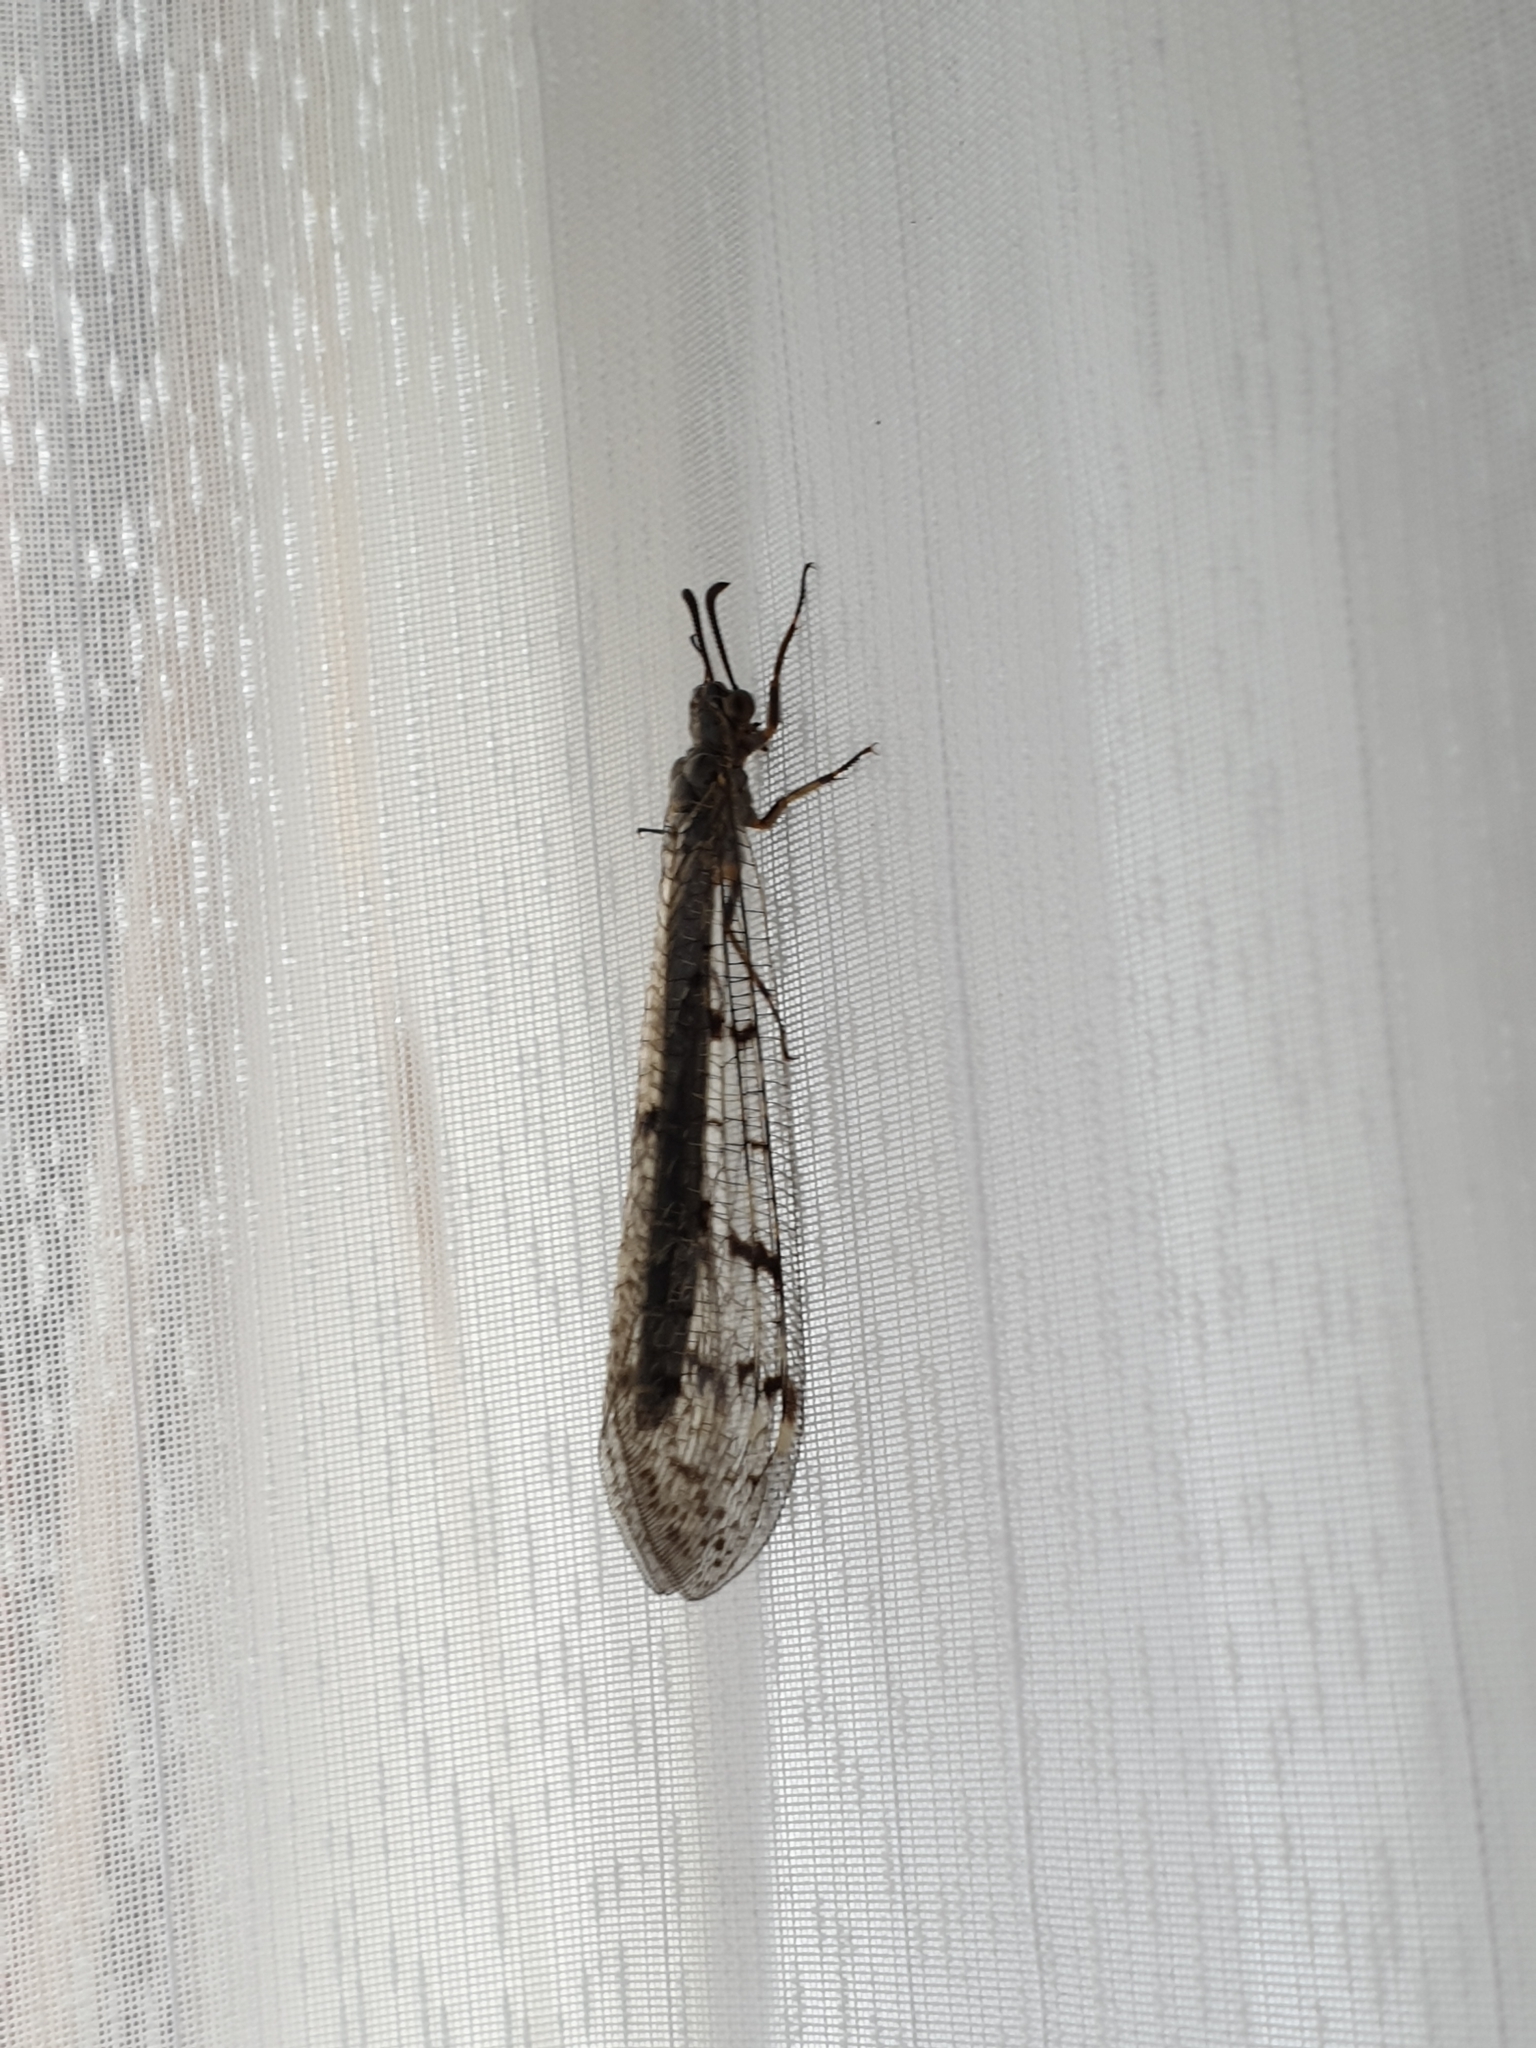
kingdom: Animalia
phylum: Arthropoda
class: Insecta
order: Neuroptera
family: Myrmeleontidae
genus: Euroleon
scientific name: Euroleon nostras
